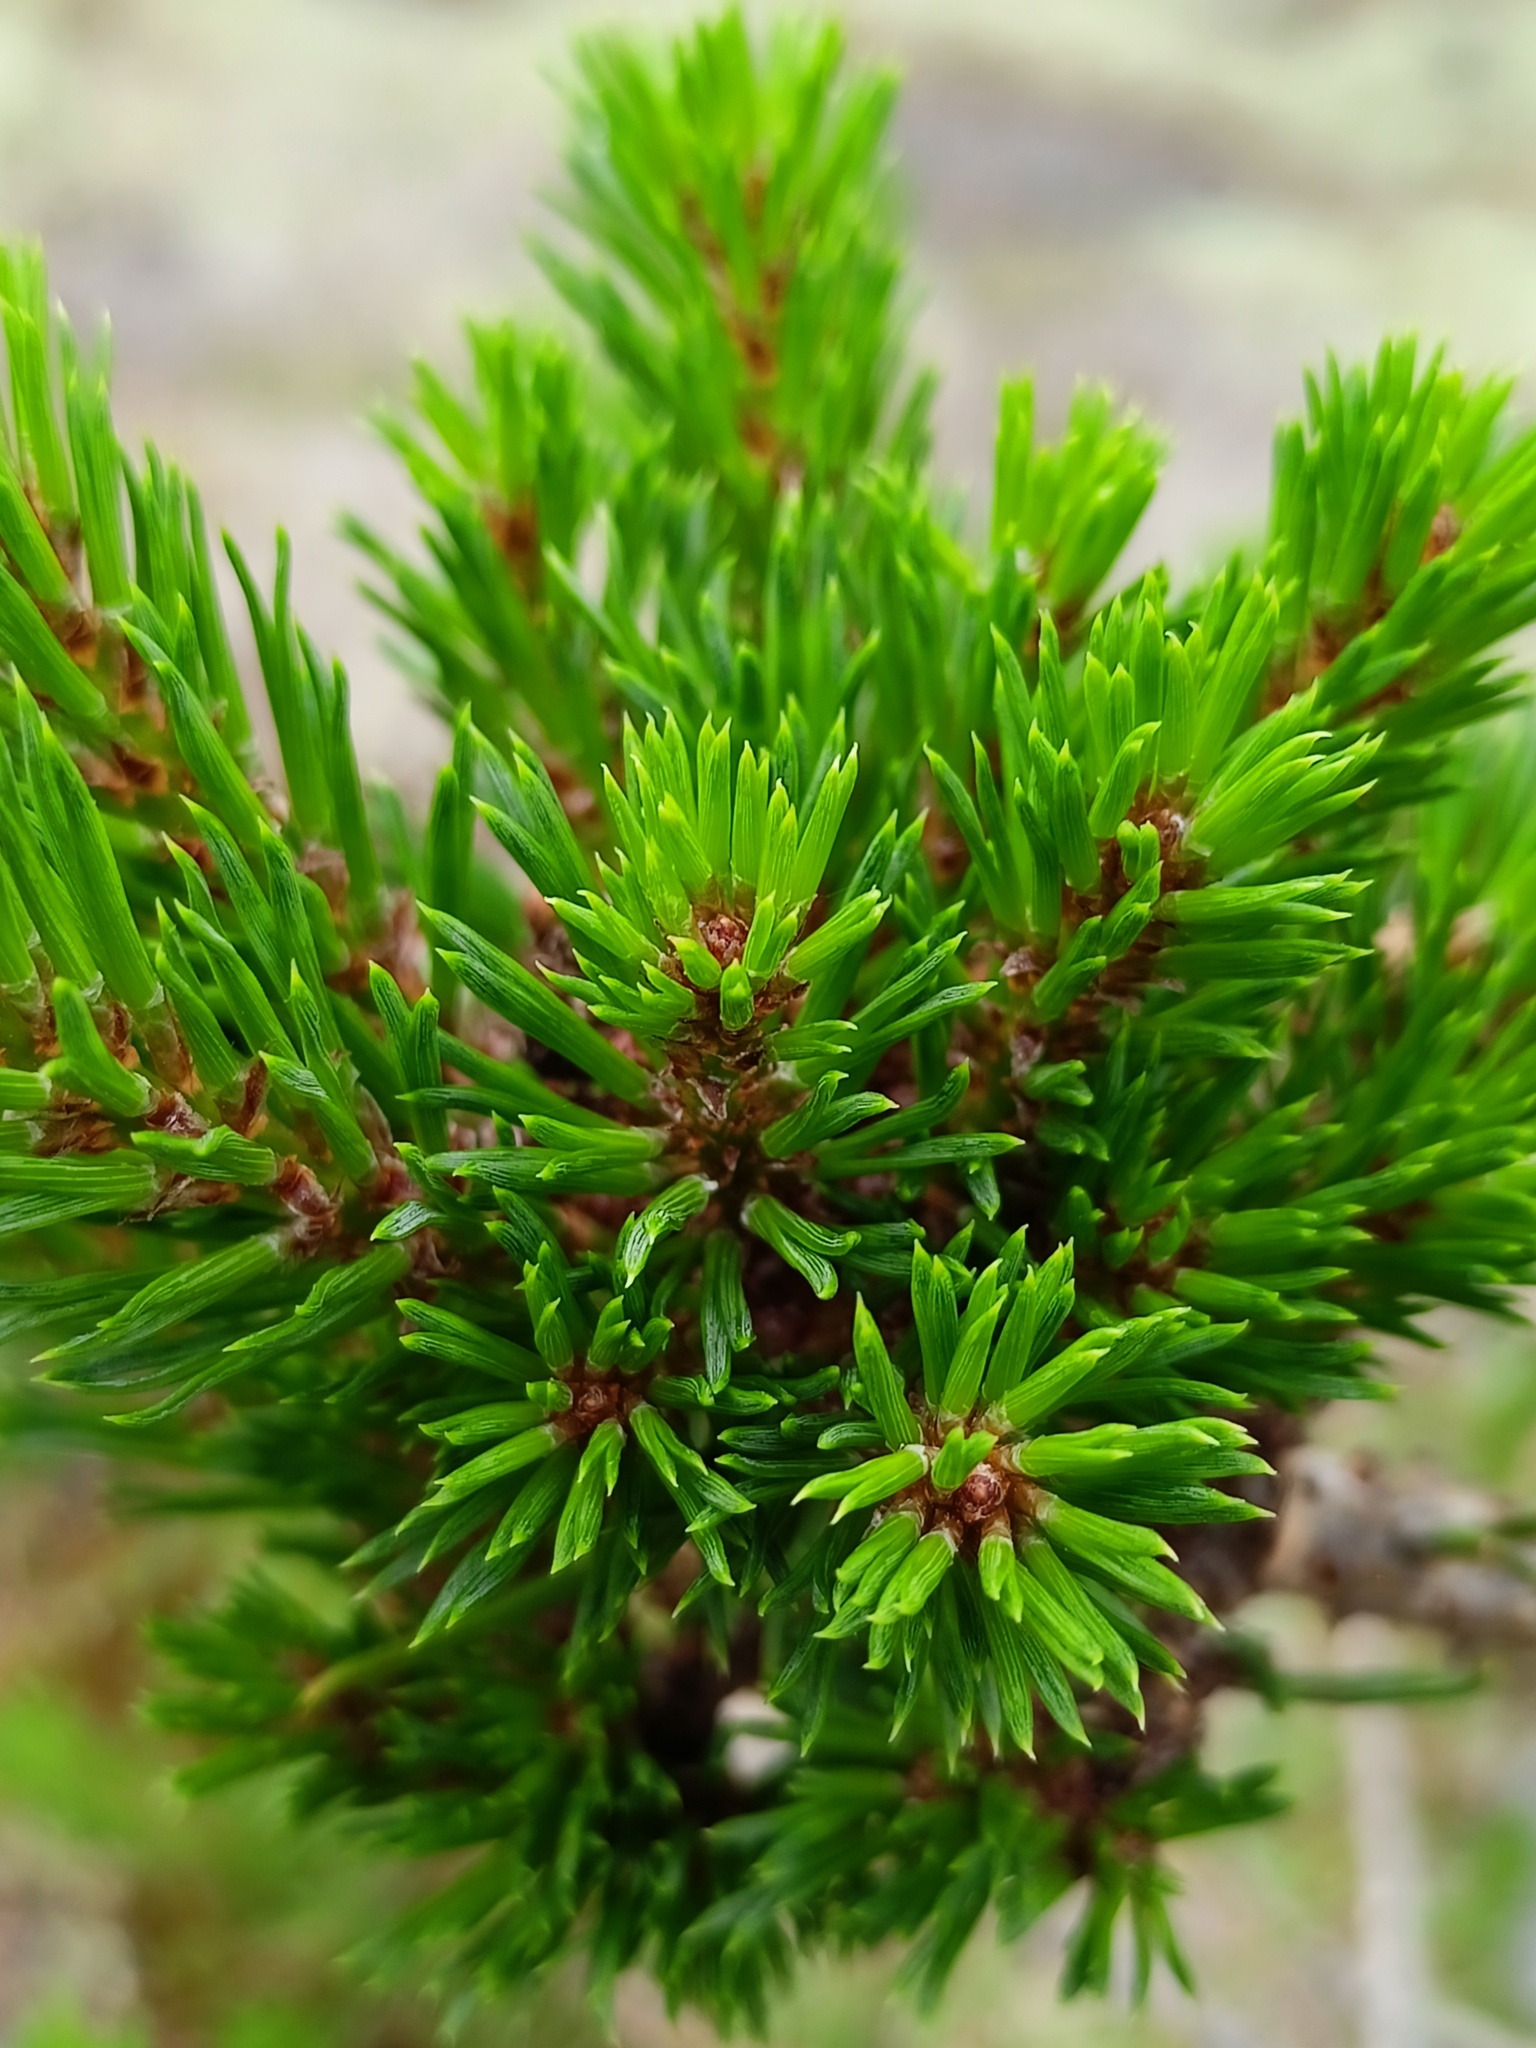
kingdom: Plantae
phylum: Tracheophyta
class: Pinopsida
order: Pinales
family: Pinaceae
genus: Pinus
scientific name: Pinus sylvestris
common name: Scots pine
